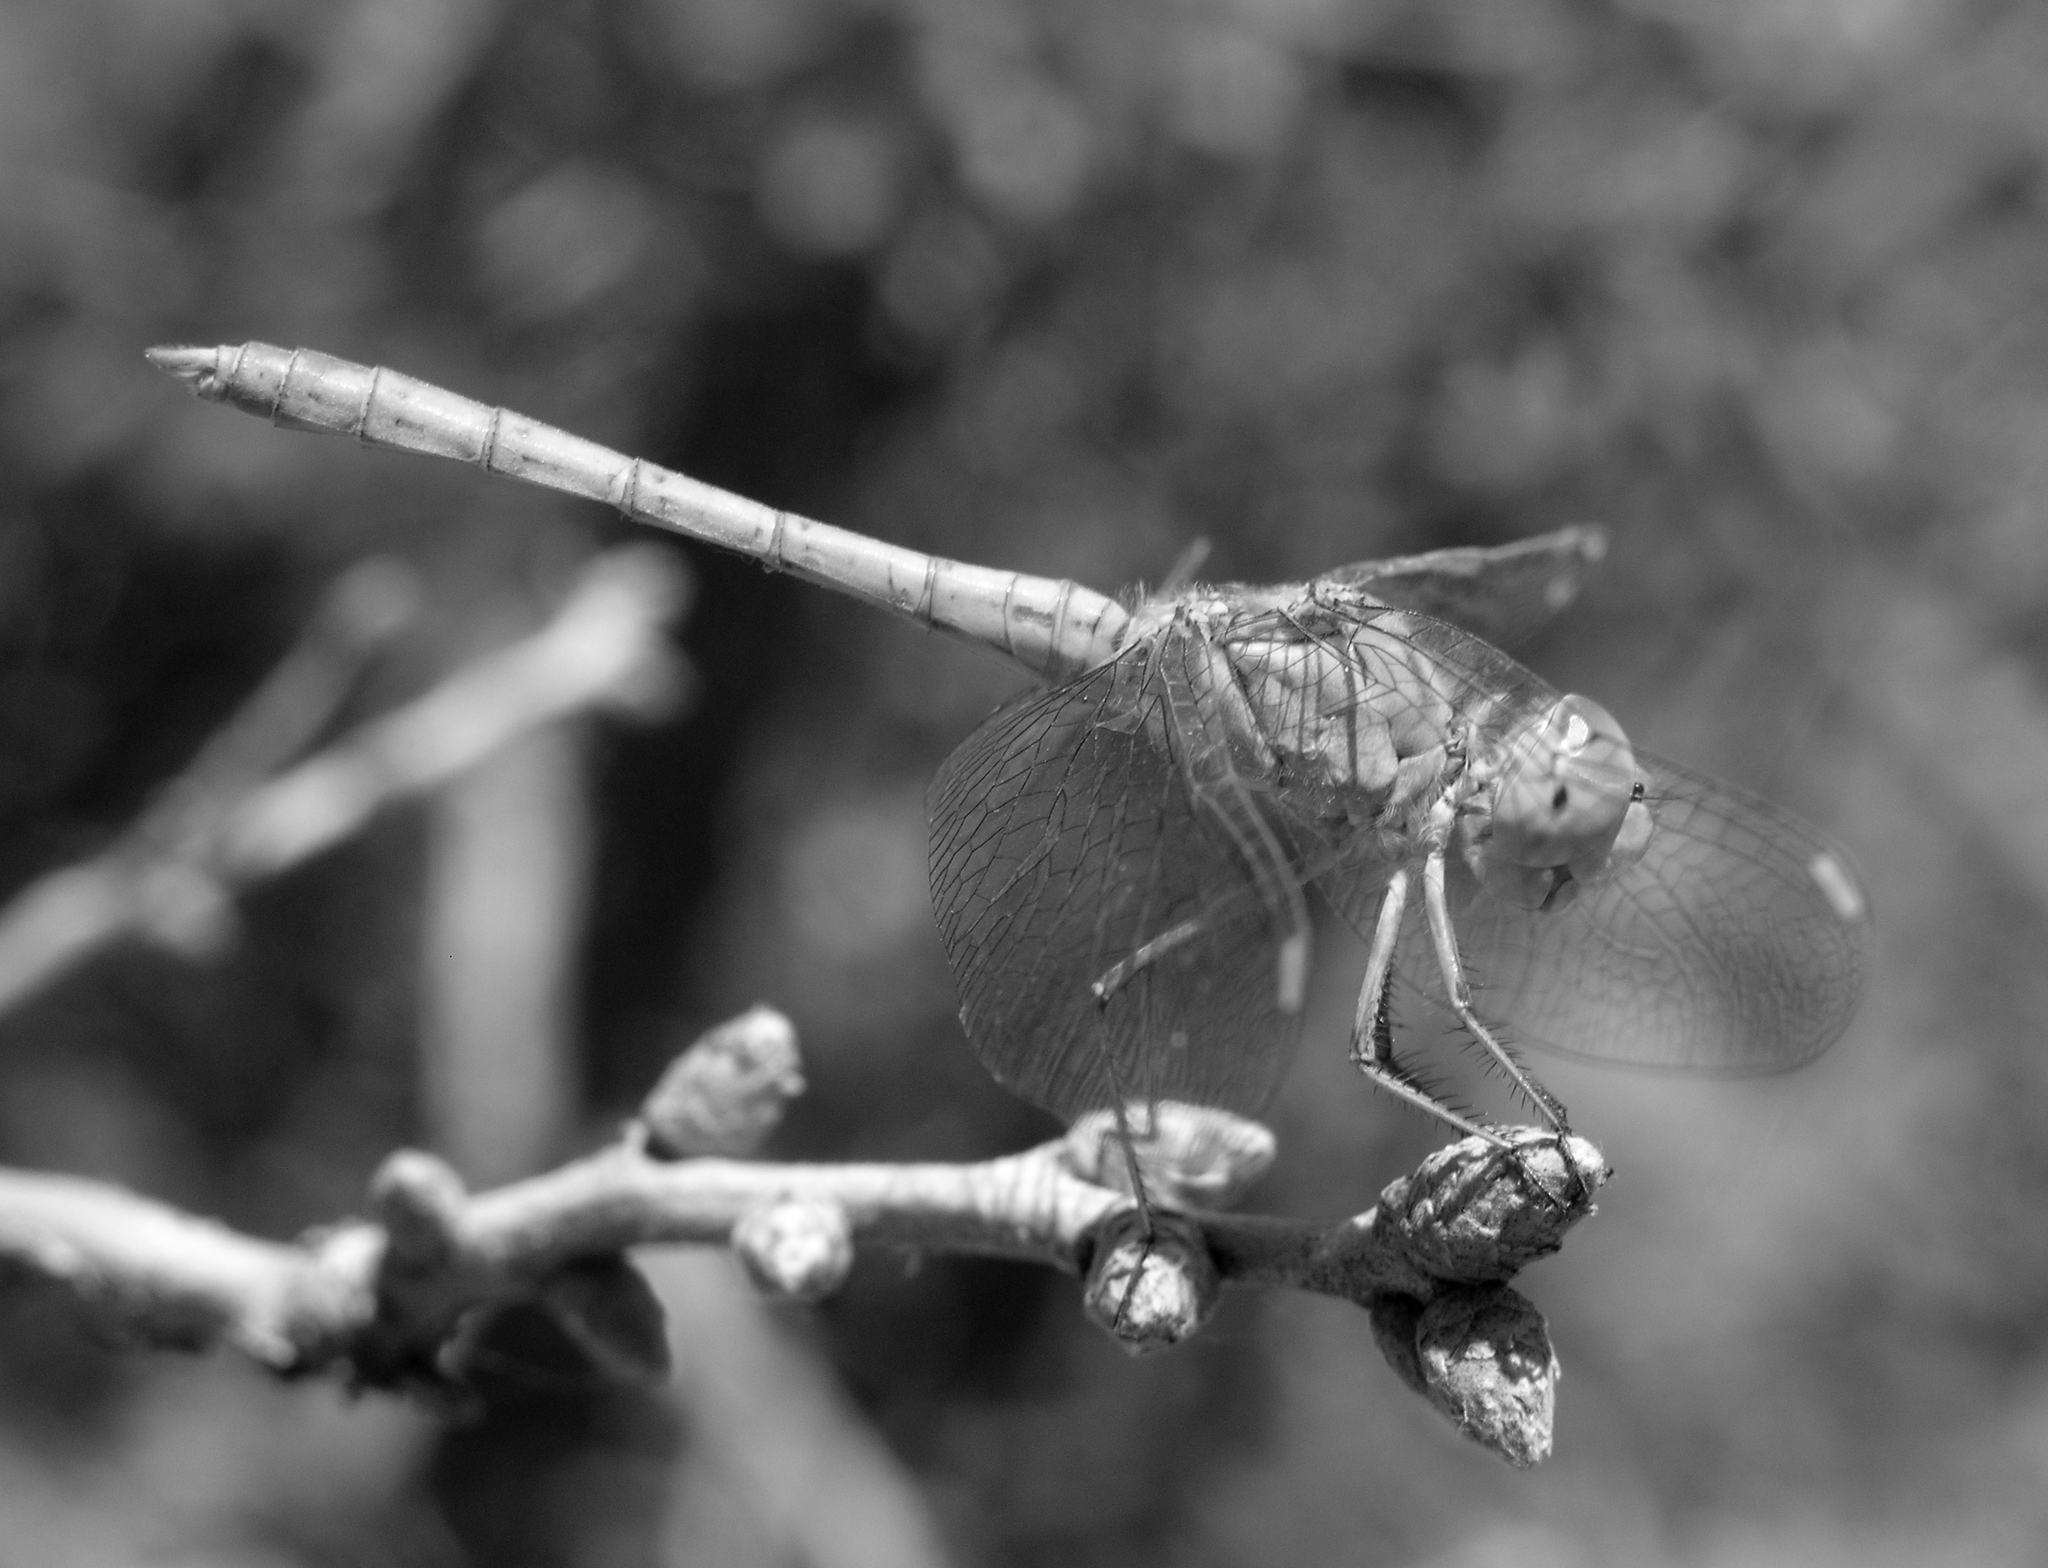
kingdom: Animalia
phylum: Arthropoda
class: Insecta
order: Odonata
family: Libellulidae
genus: Sympetrum
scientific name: Sympetrum arenicolor
